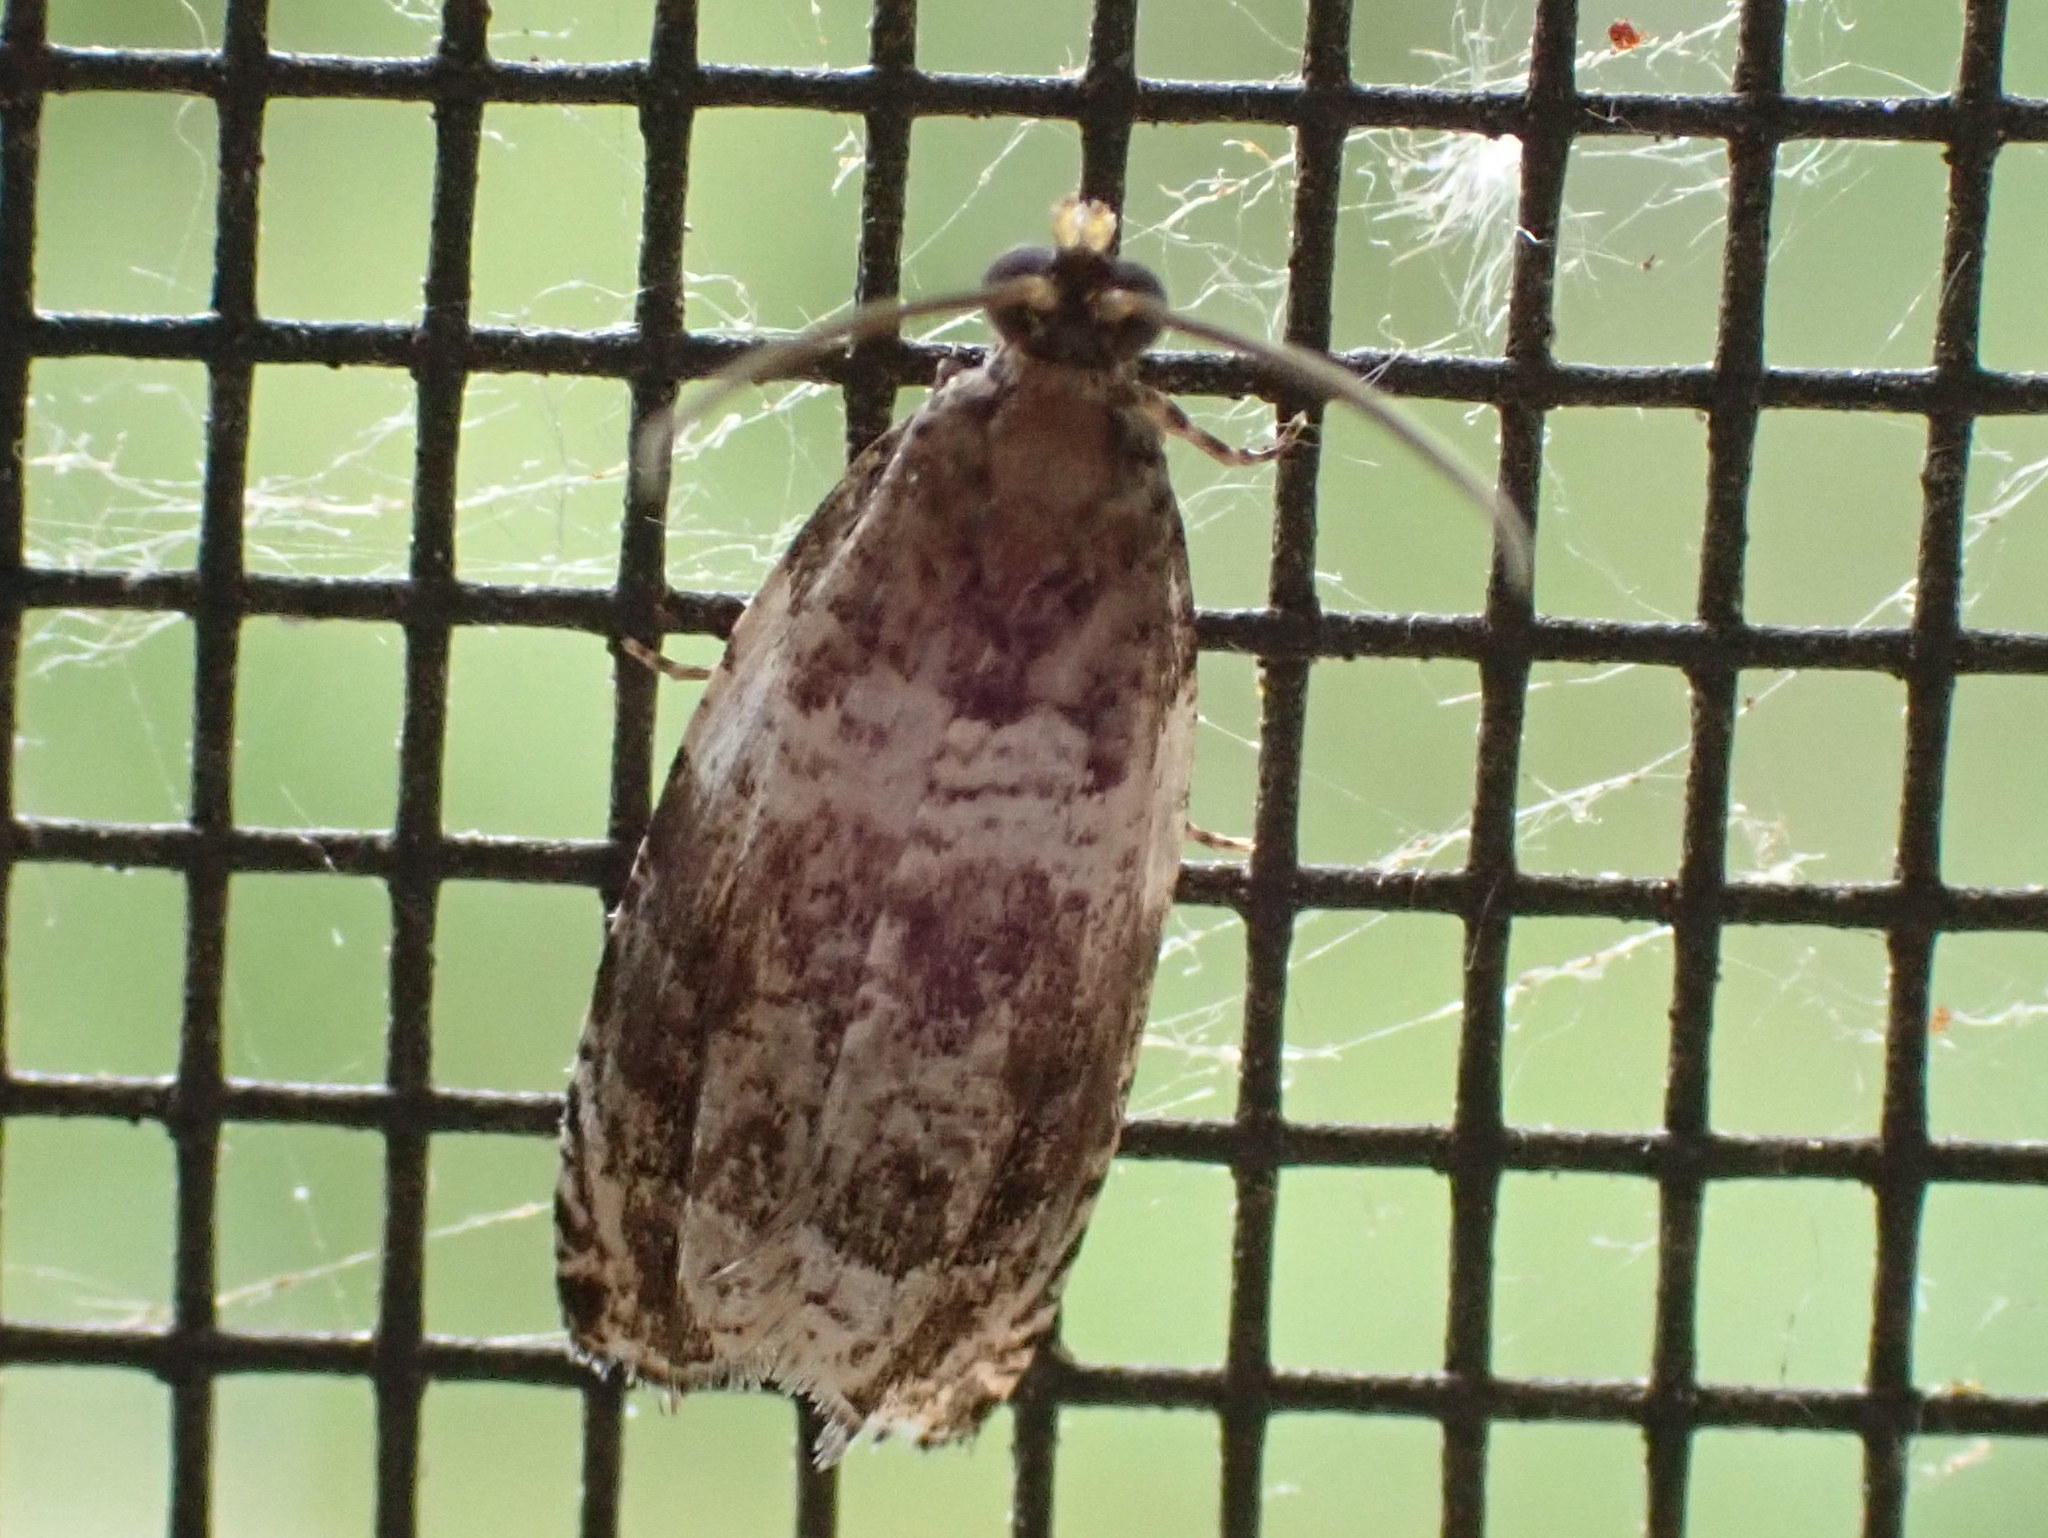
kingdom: Animalia
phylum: Arthropoda
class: Insecta
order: Lepidoptera
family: Tortricidae
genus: Olethreutes
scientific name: Olethreutes fasciatana
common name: Banded olethreutes moth
